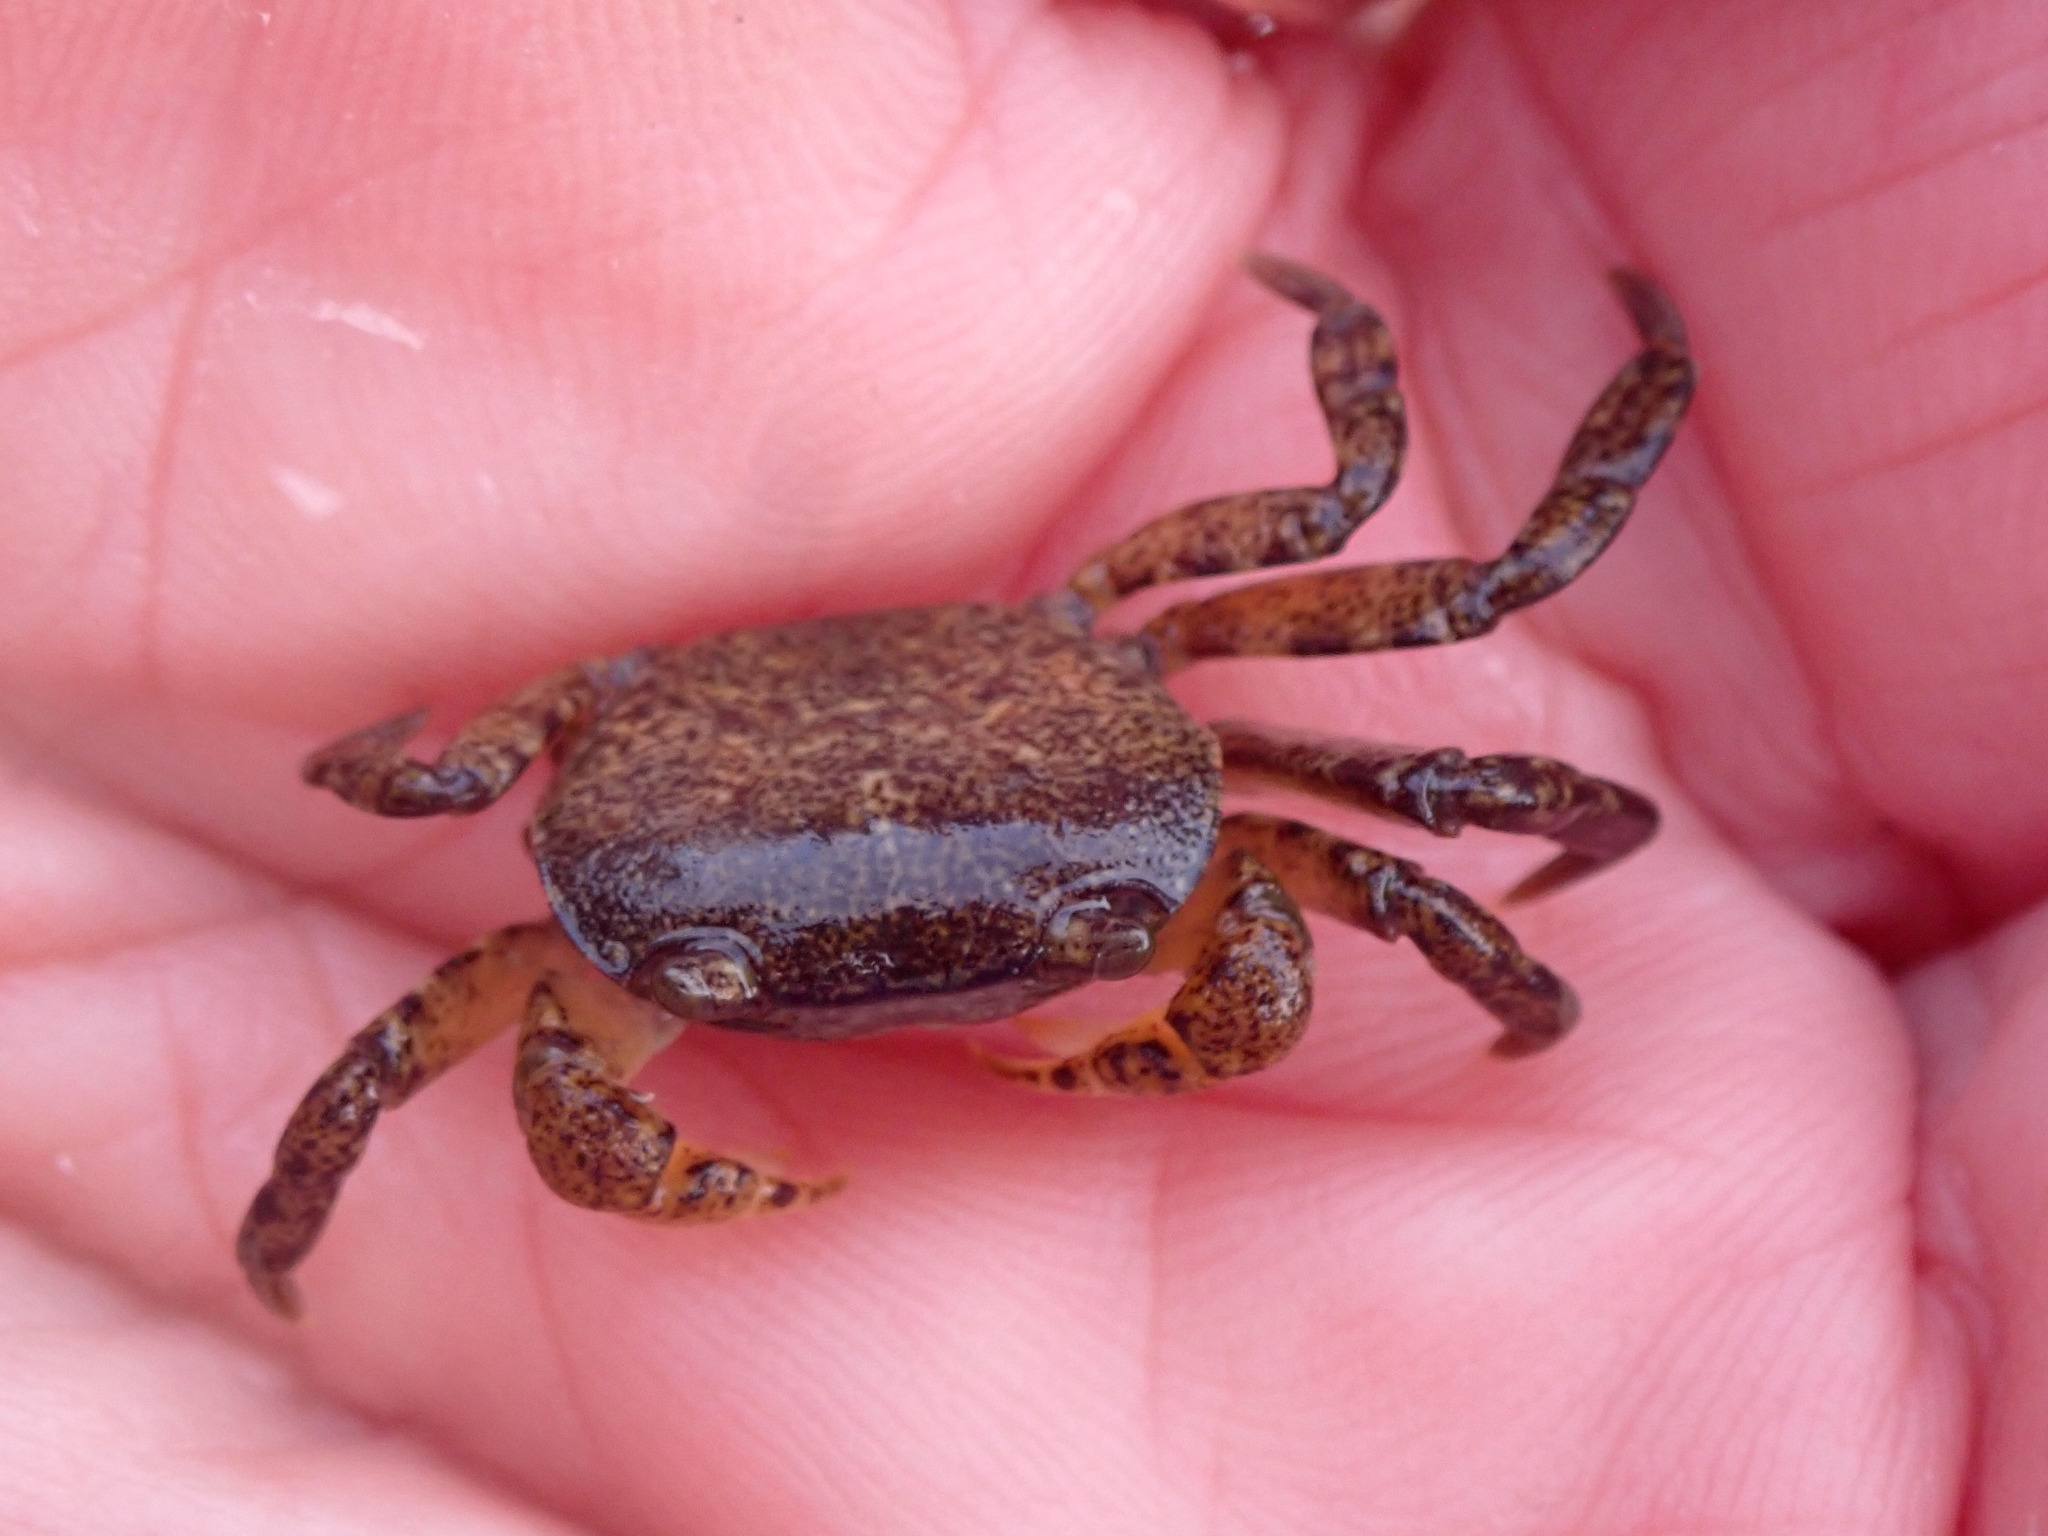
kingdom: Animalia
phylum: Arthropoda
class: Malacostraca
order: Decapoda
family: Varunidae
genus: Cyclograpsus
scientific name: Cyclograpsus lavauxi
